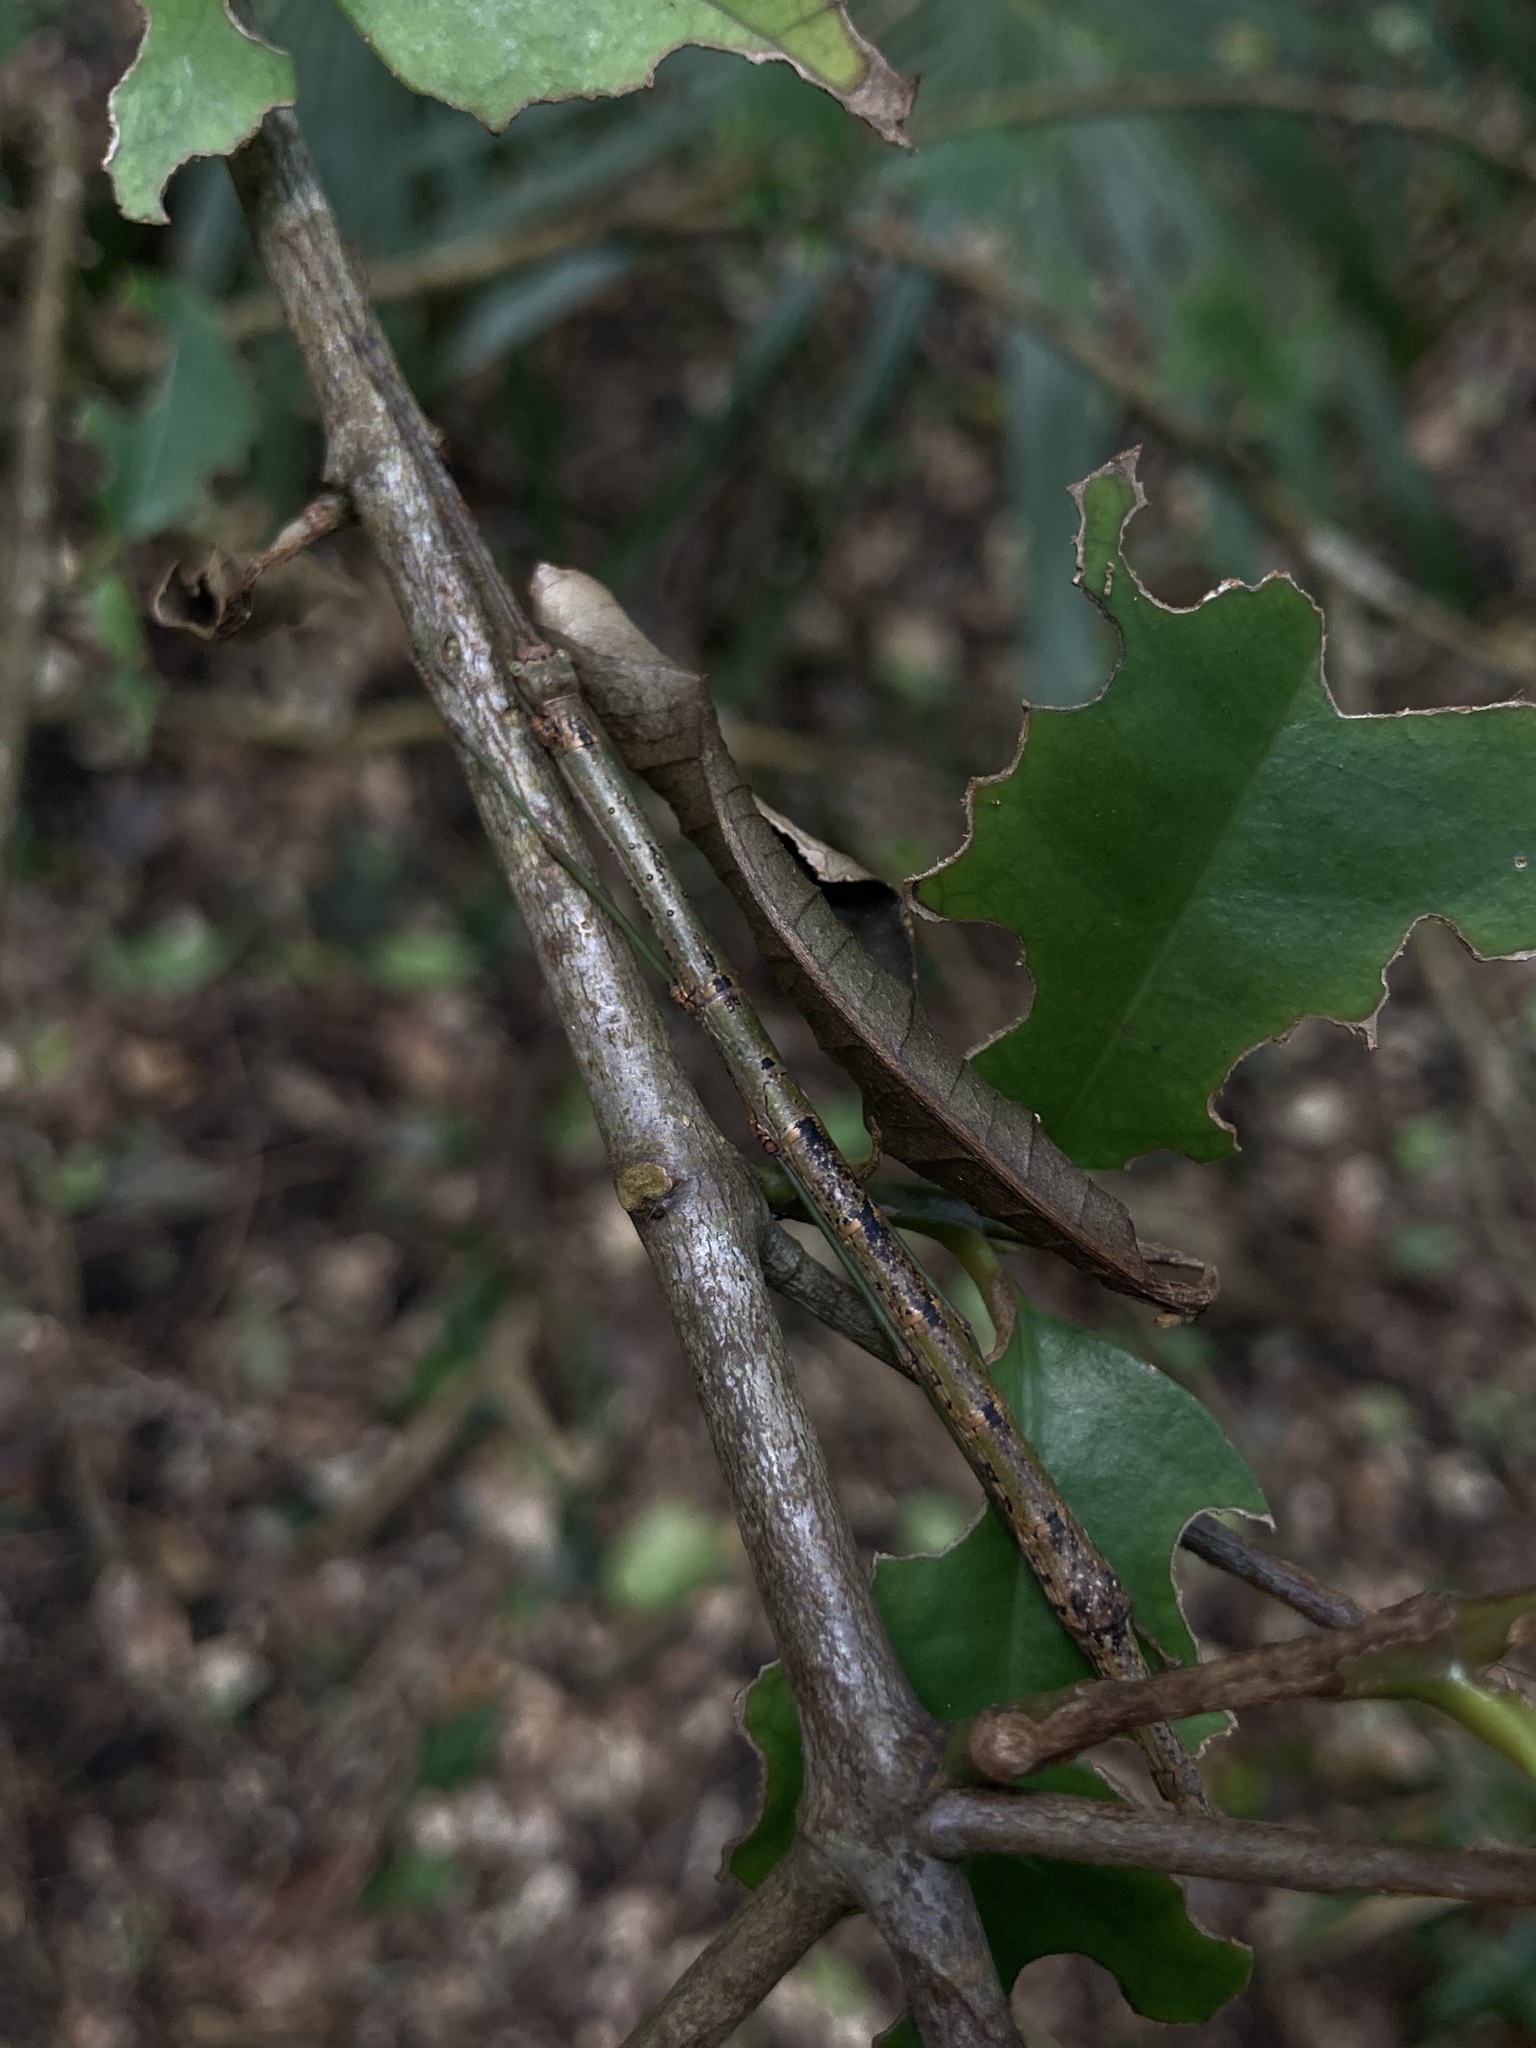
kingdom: Animalia
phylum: Arthropoda
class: Insecta
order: Phasmida
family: Lonchodidae
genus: Candovia
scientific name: Candovia strumosa
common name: Richmond river stick-insect
